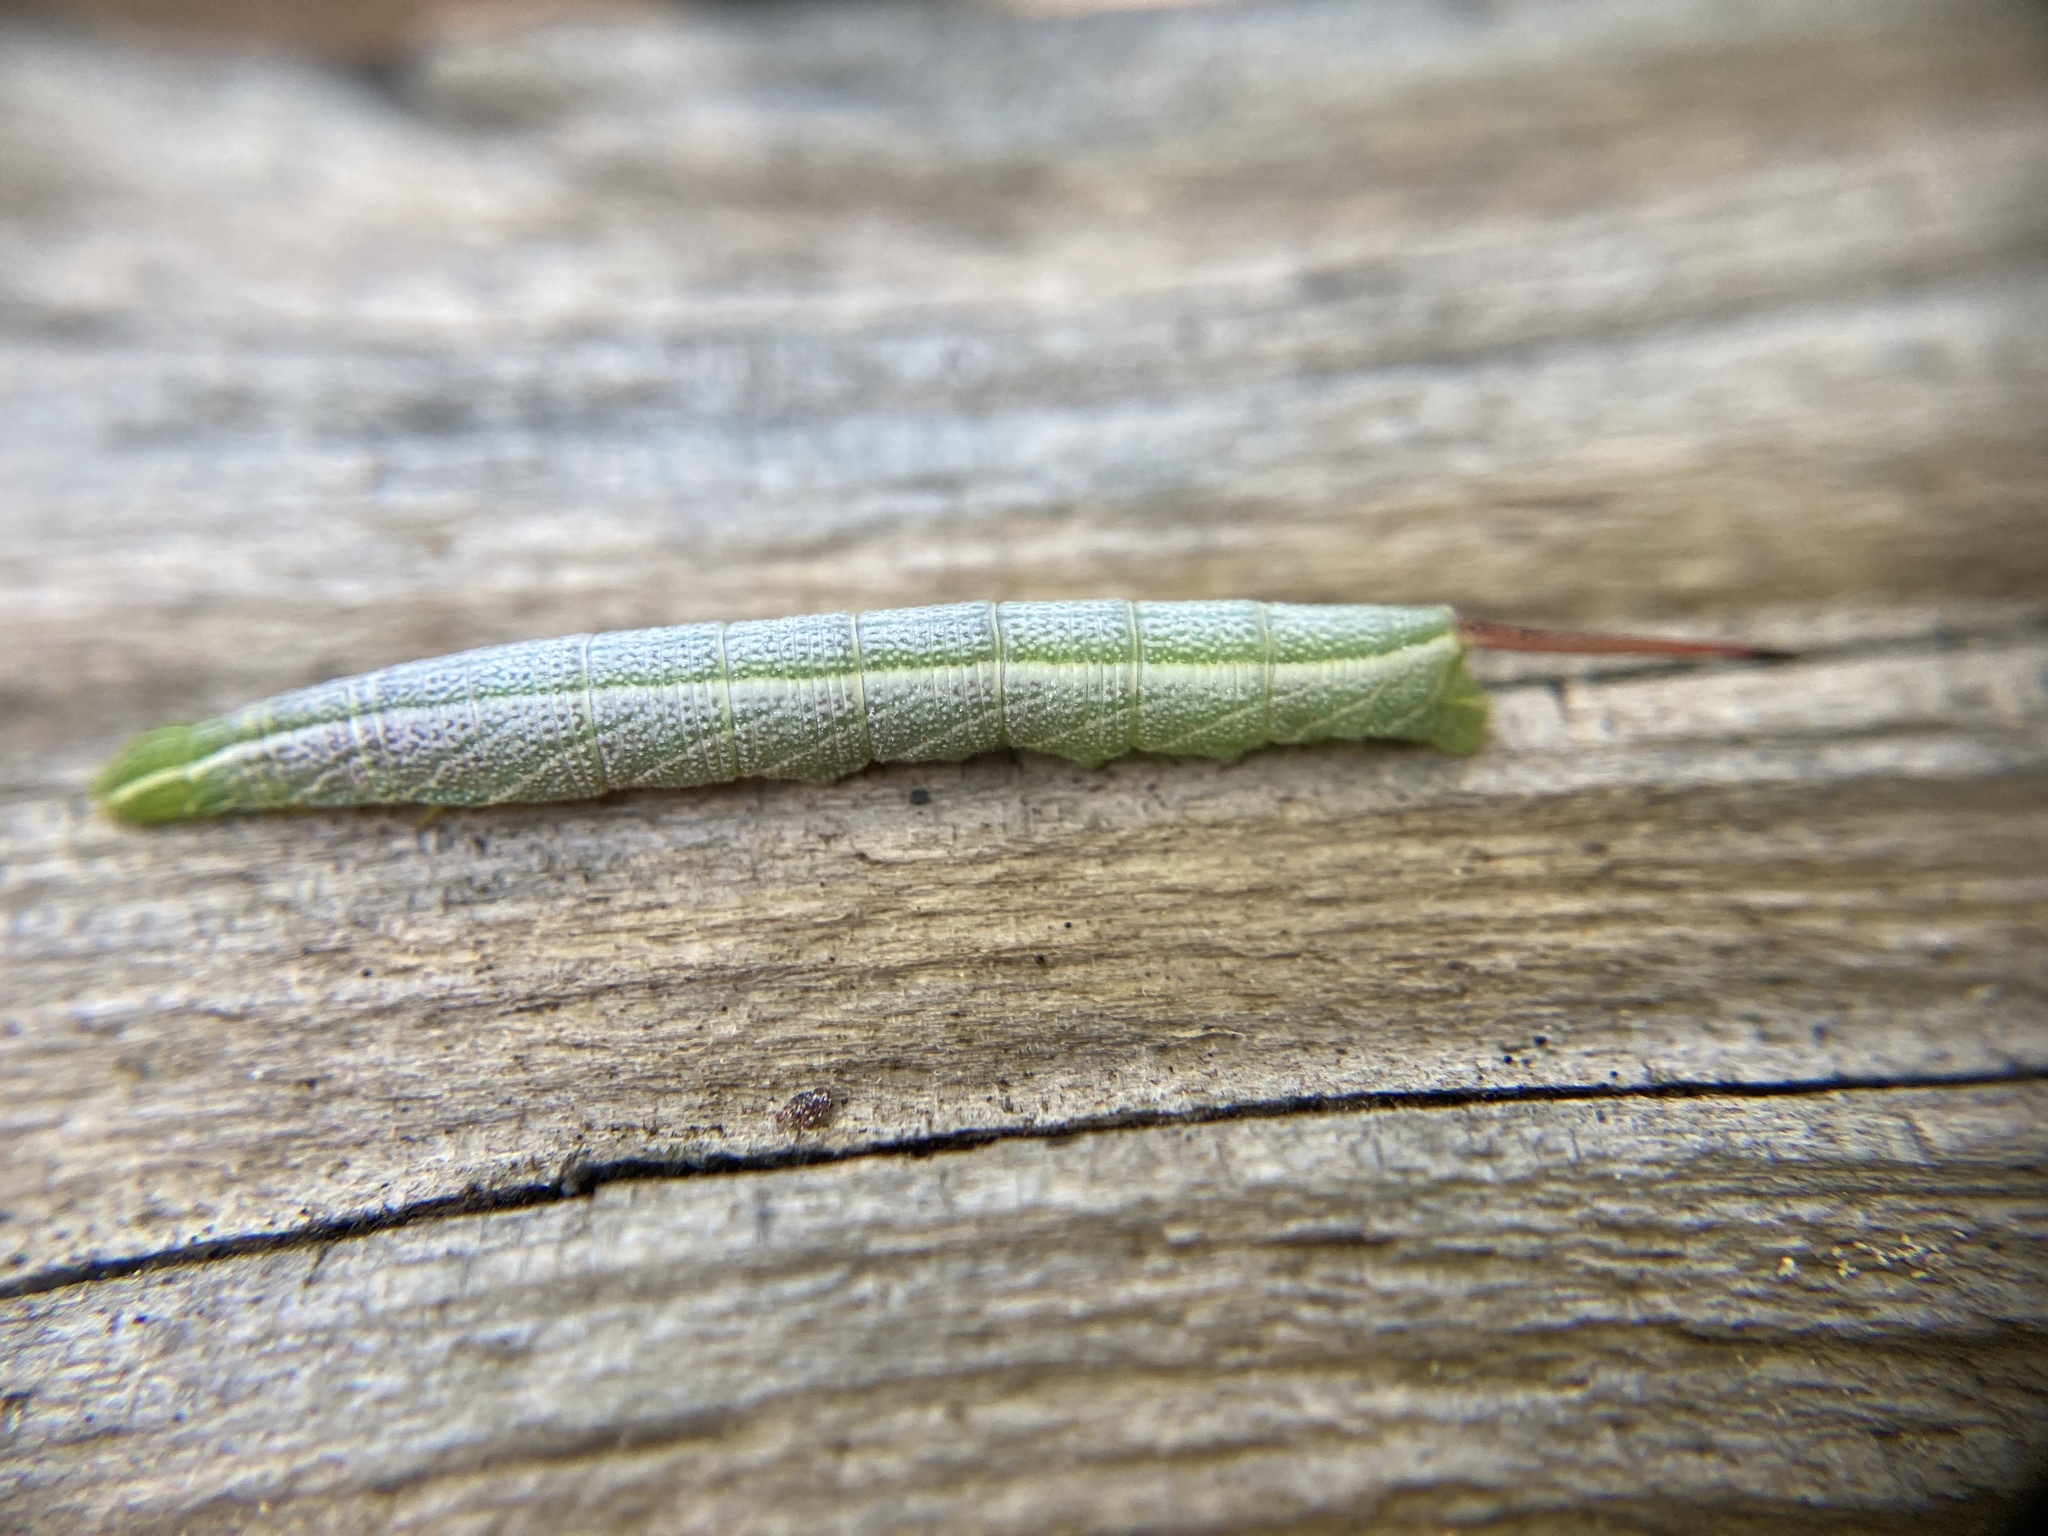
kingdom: Animalia
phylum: Arthropoda
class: Insecta
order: Lepidoptera
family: Sphingidae
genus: Enyo
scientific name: Enyo lugubris
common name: Mournful sphinx
